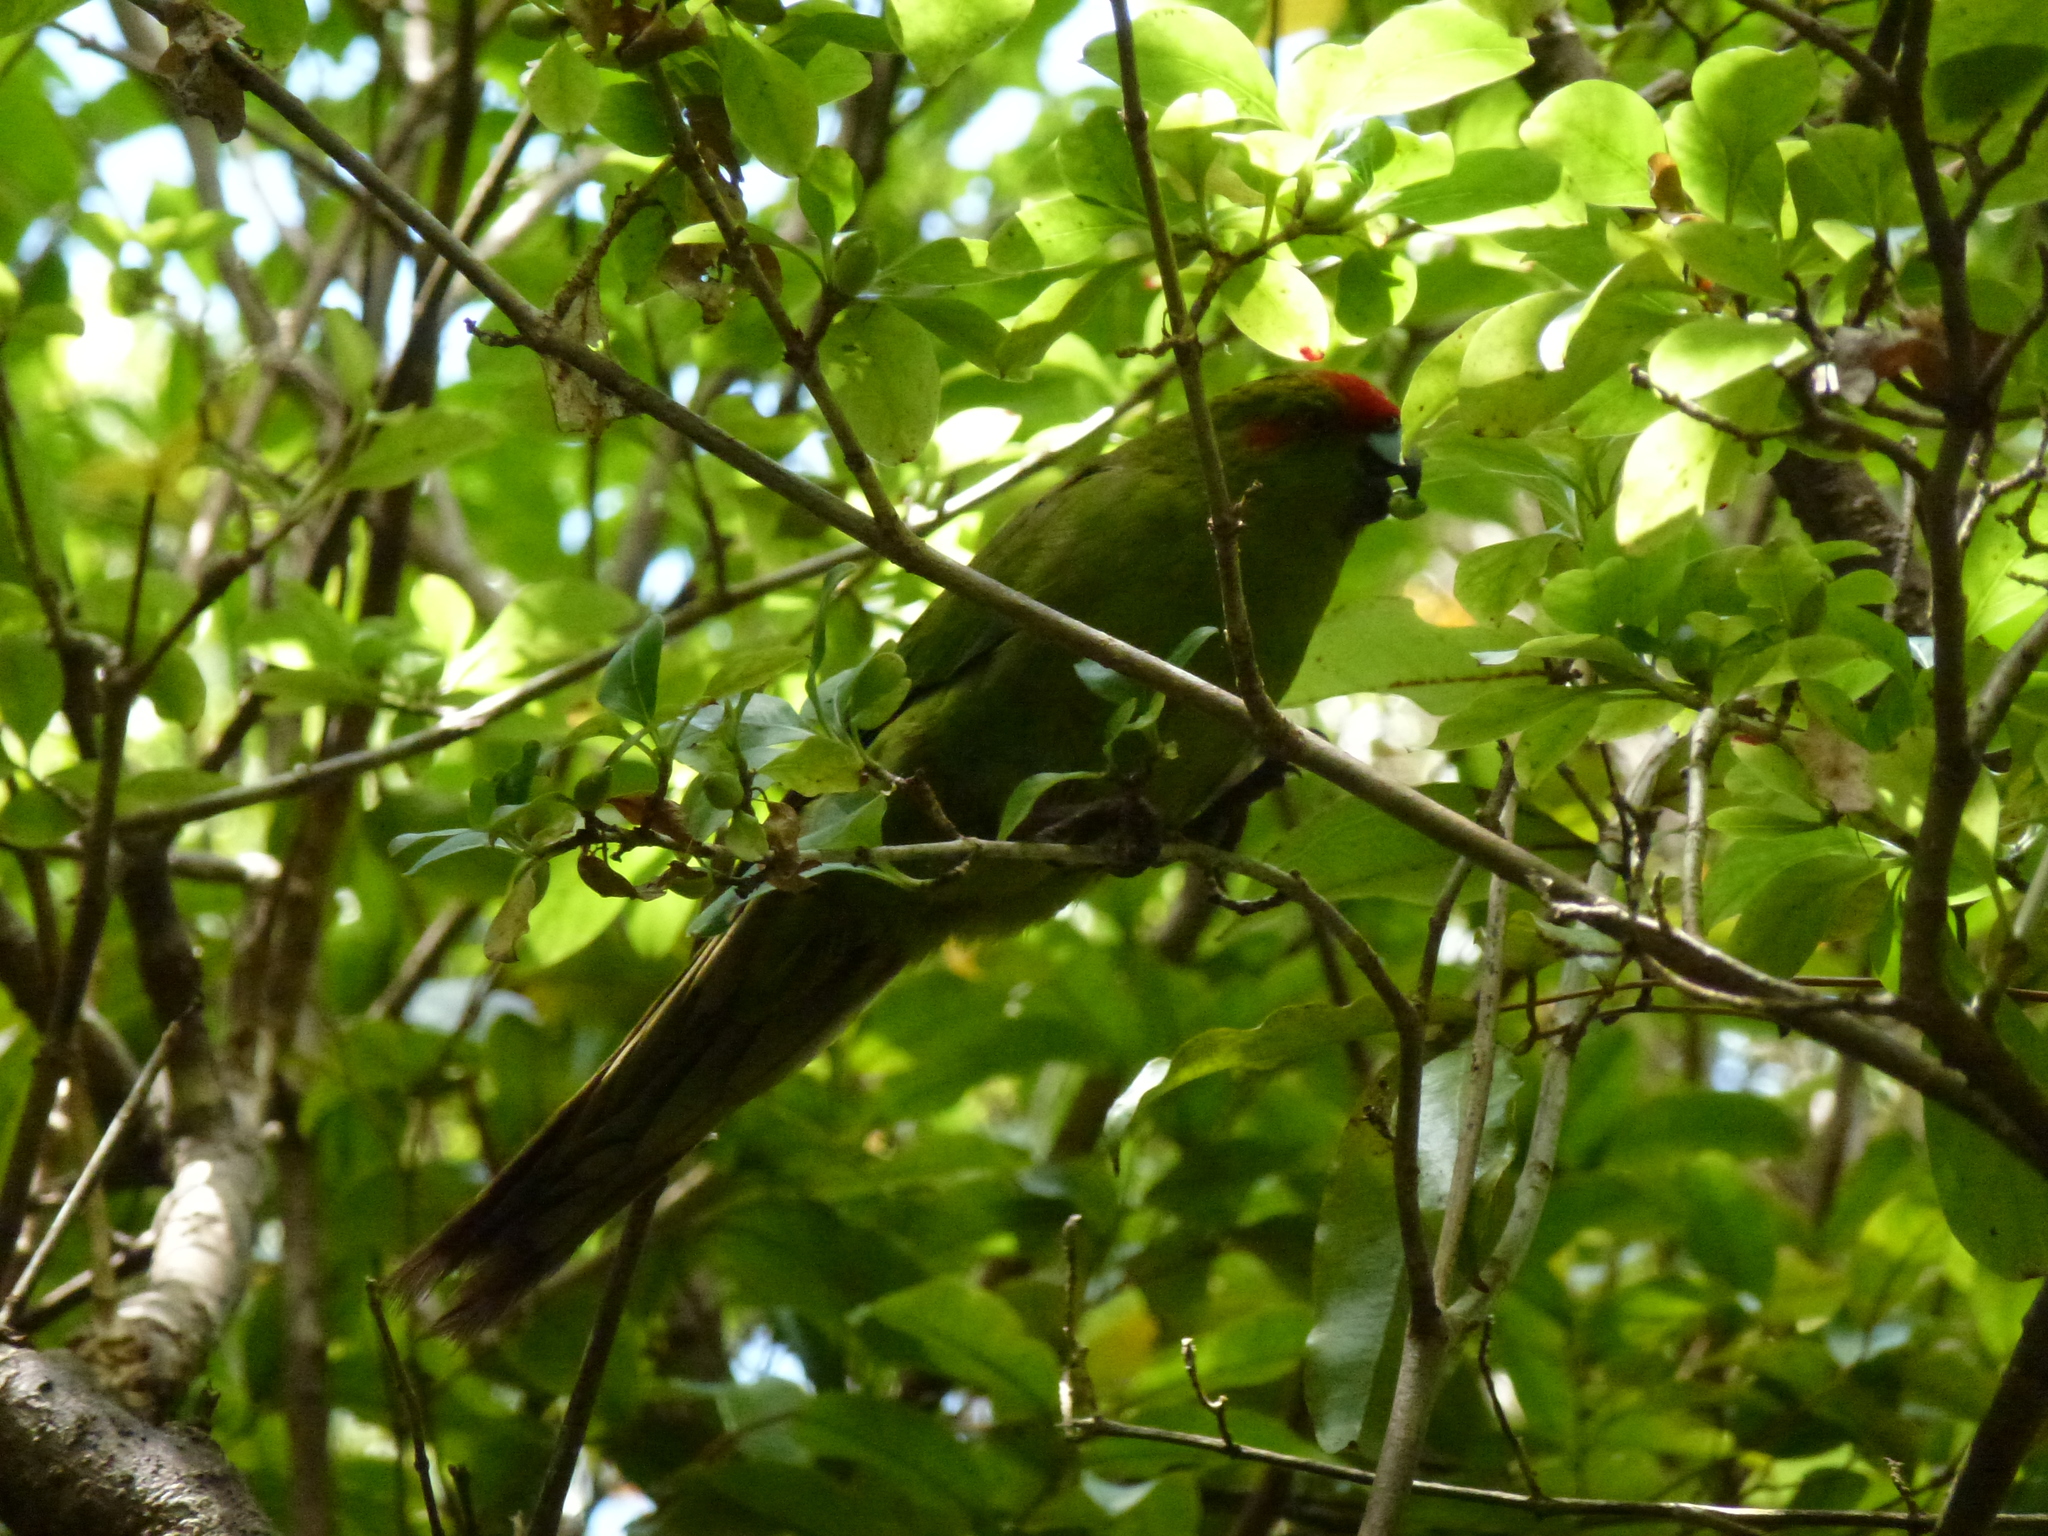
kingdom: Animalia
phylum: Chordata
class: Aves
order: Psittaciformes
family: Psittacidae
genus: Cyanoramphus
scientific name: Cyanoramphus novaezelandiae
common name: Red-fronted parakeet
